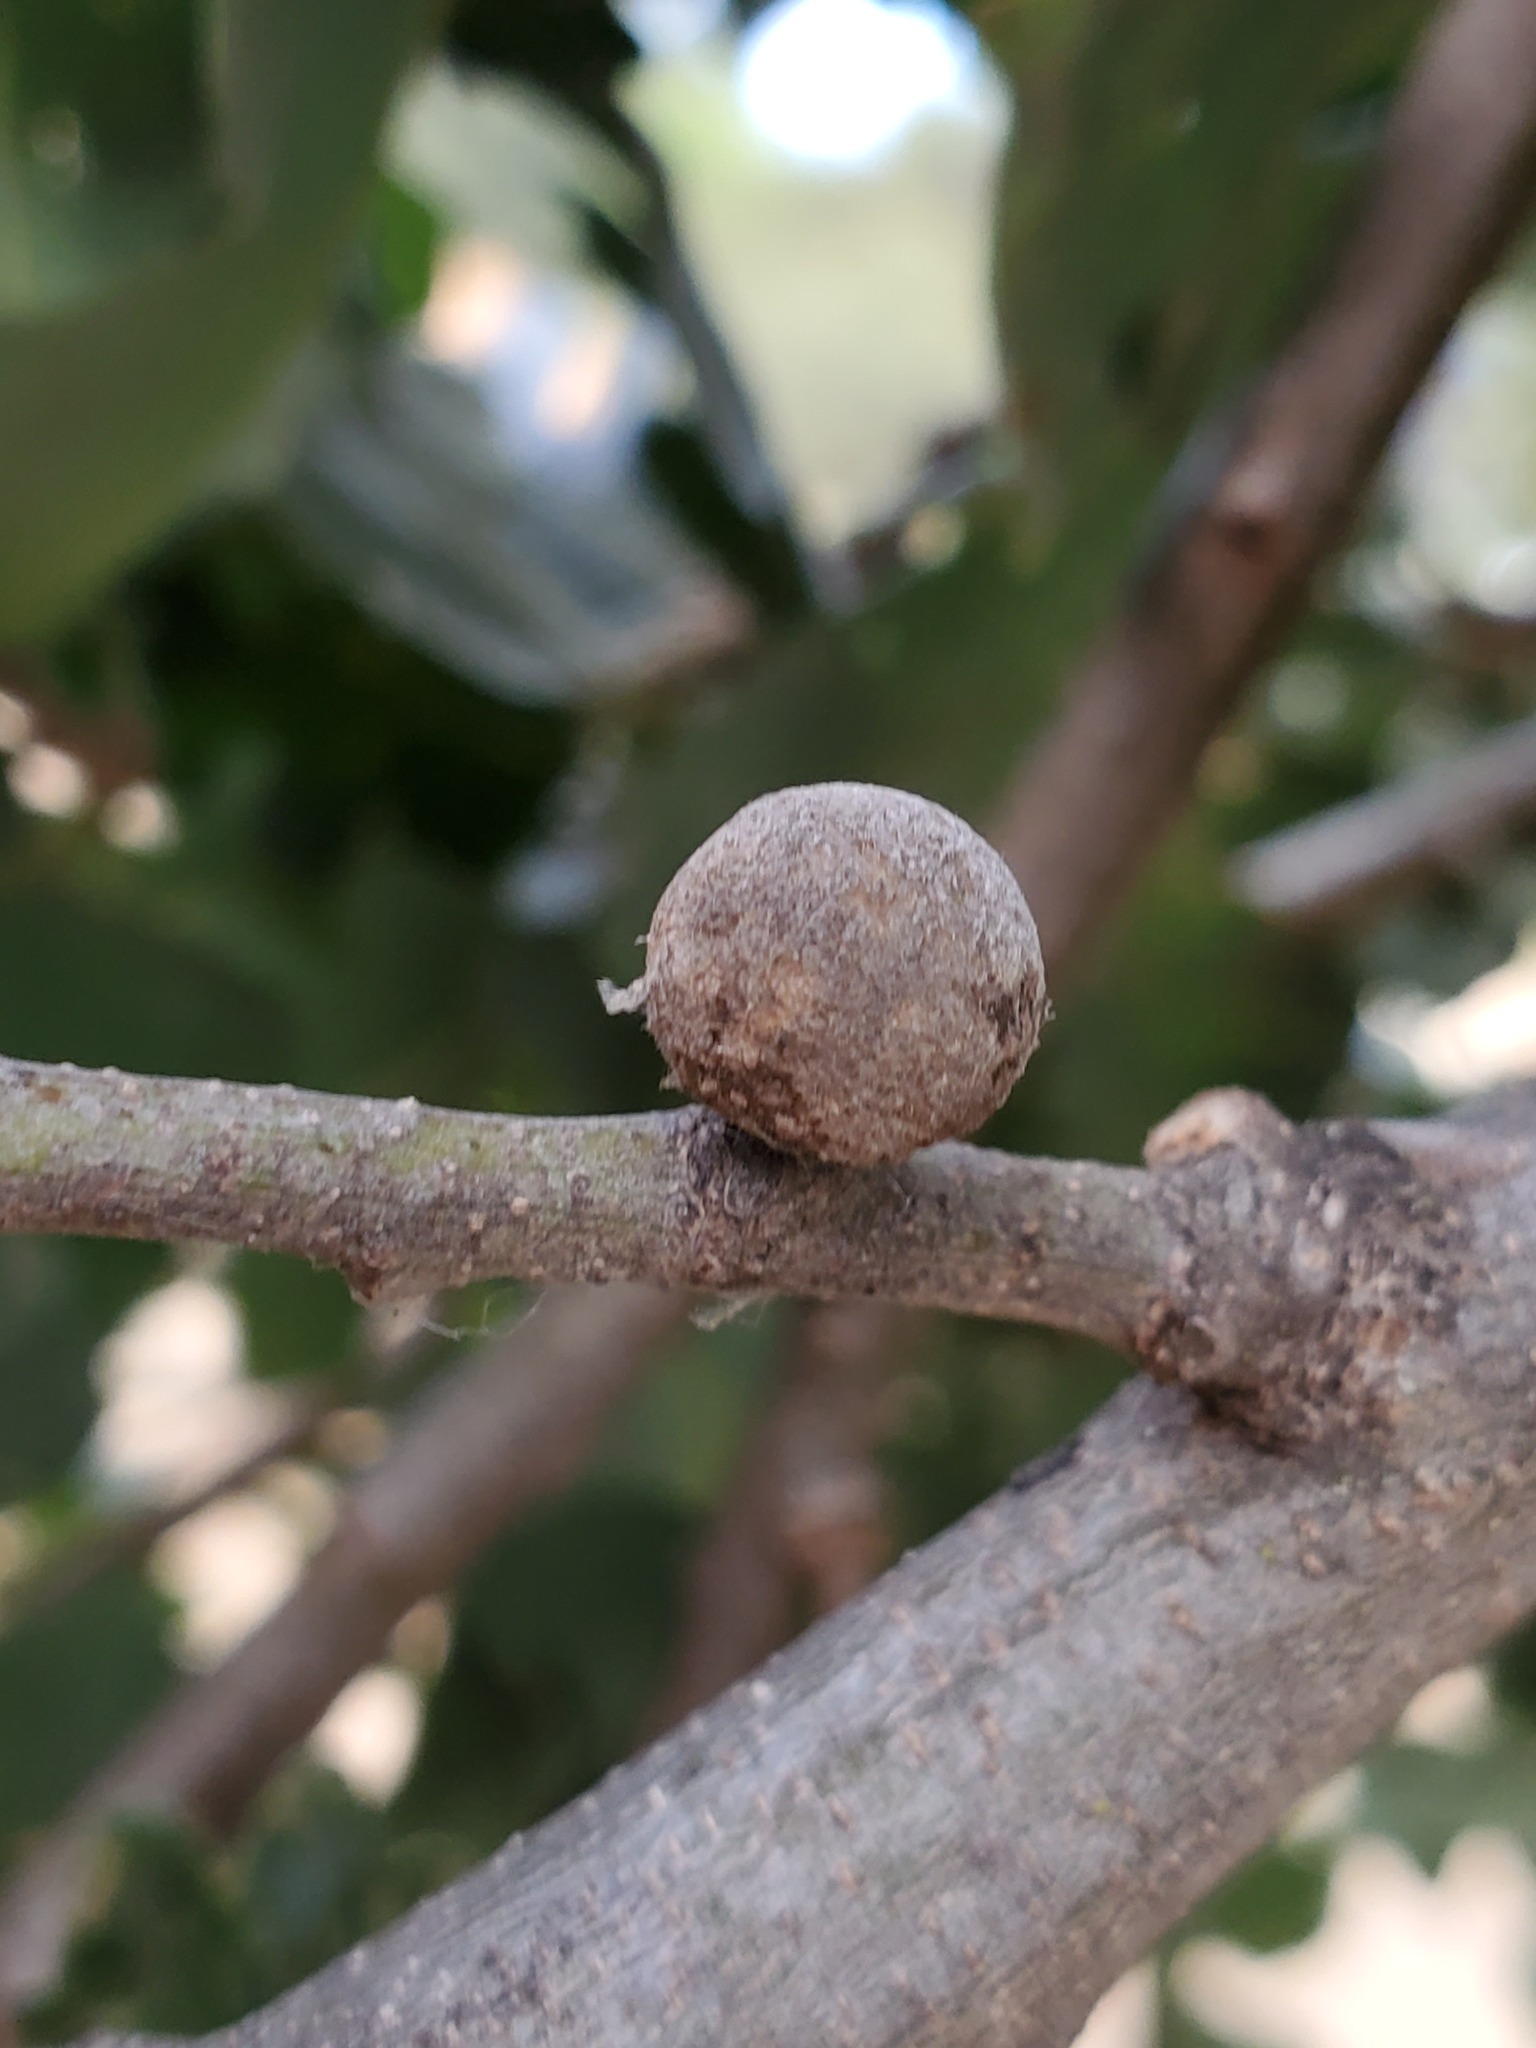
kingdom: Animalia
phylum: Arthropoda
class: Insecta
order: Hymenoptera
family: Cynipidae
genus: Burnettweldia
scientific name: Burnettweldia
